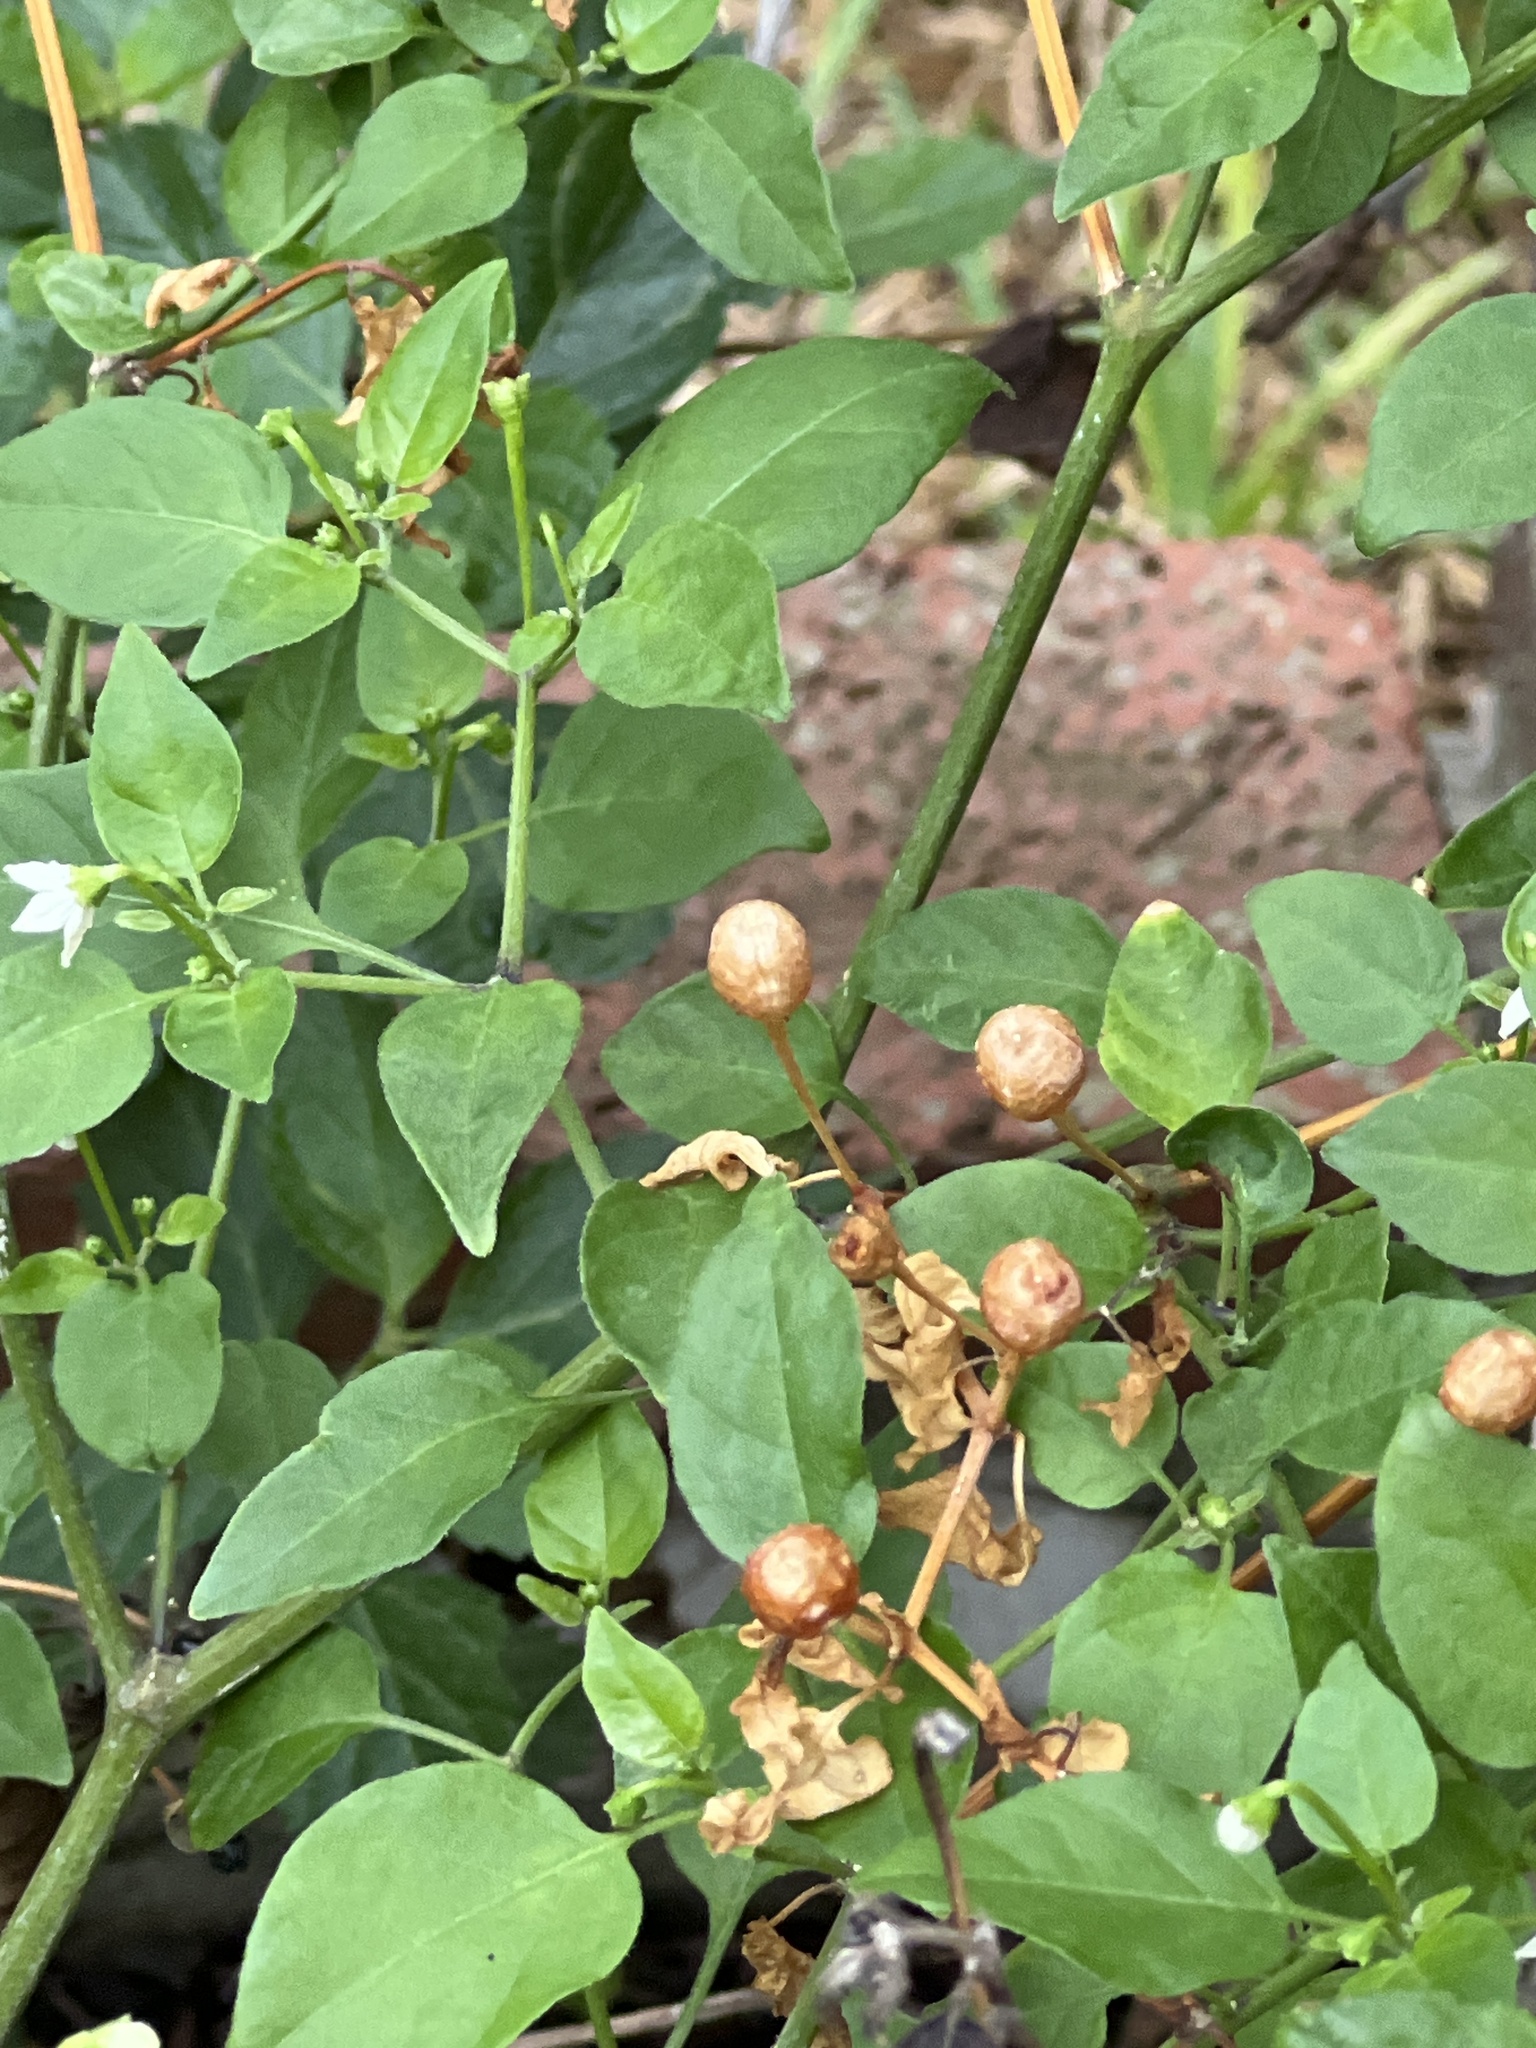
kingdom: Plantae
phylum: Tracheophyta
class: Magnoliopsida
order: Solanales
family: Solanaceae
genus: Capsicum
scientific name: Capsicum annuum
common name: Sweet pepper
